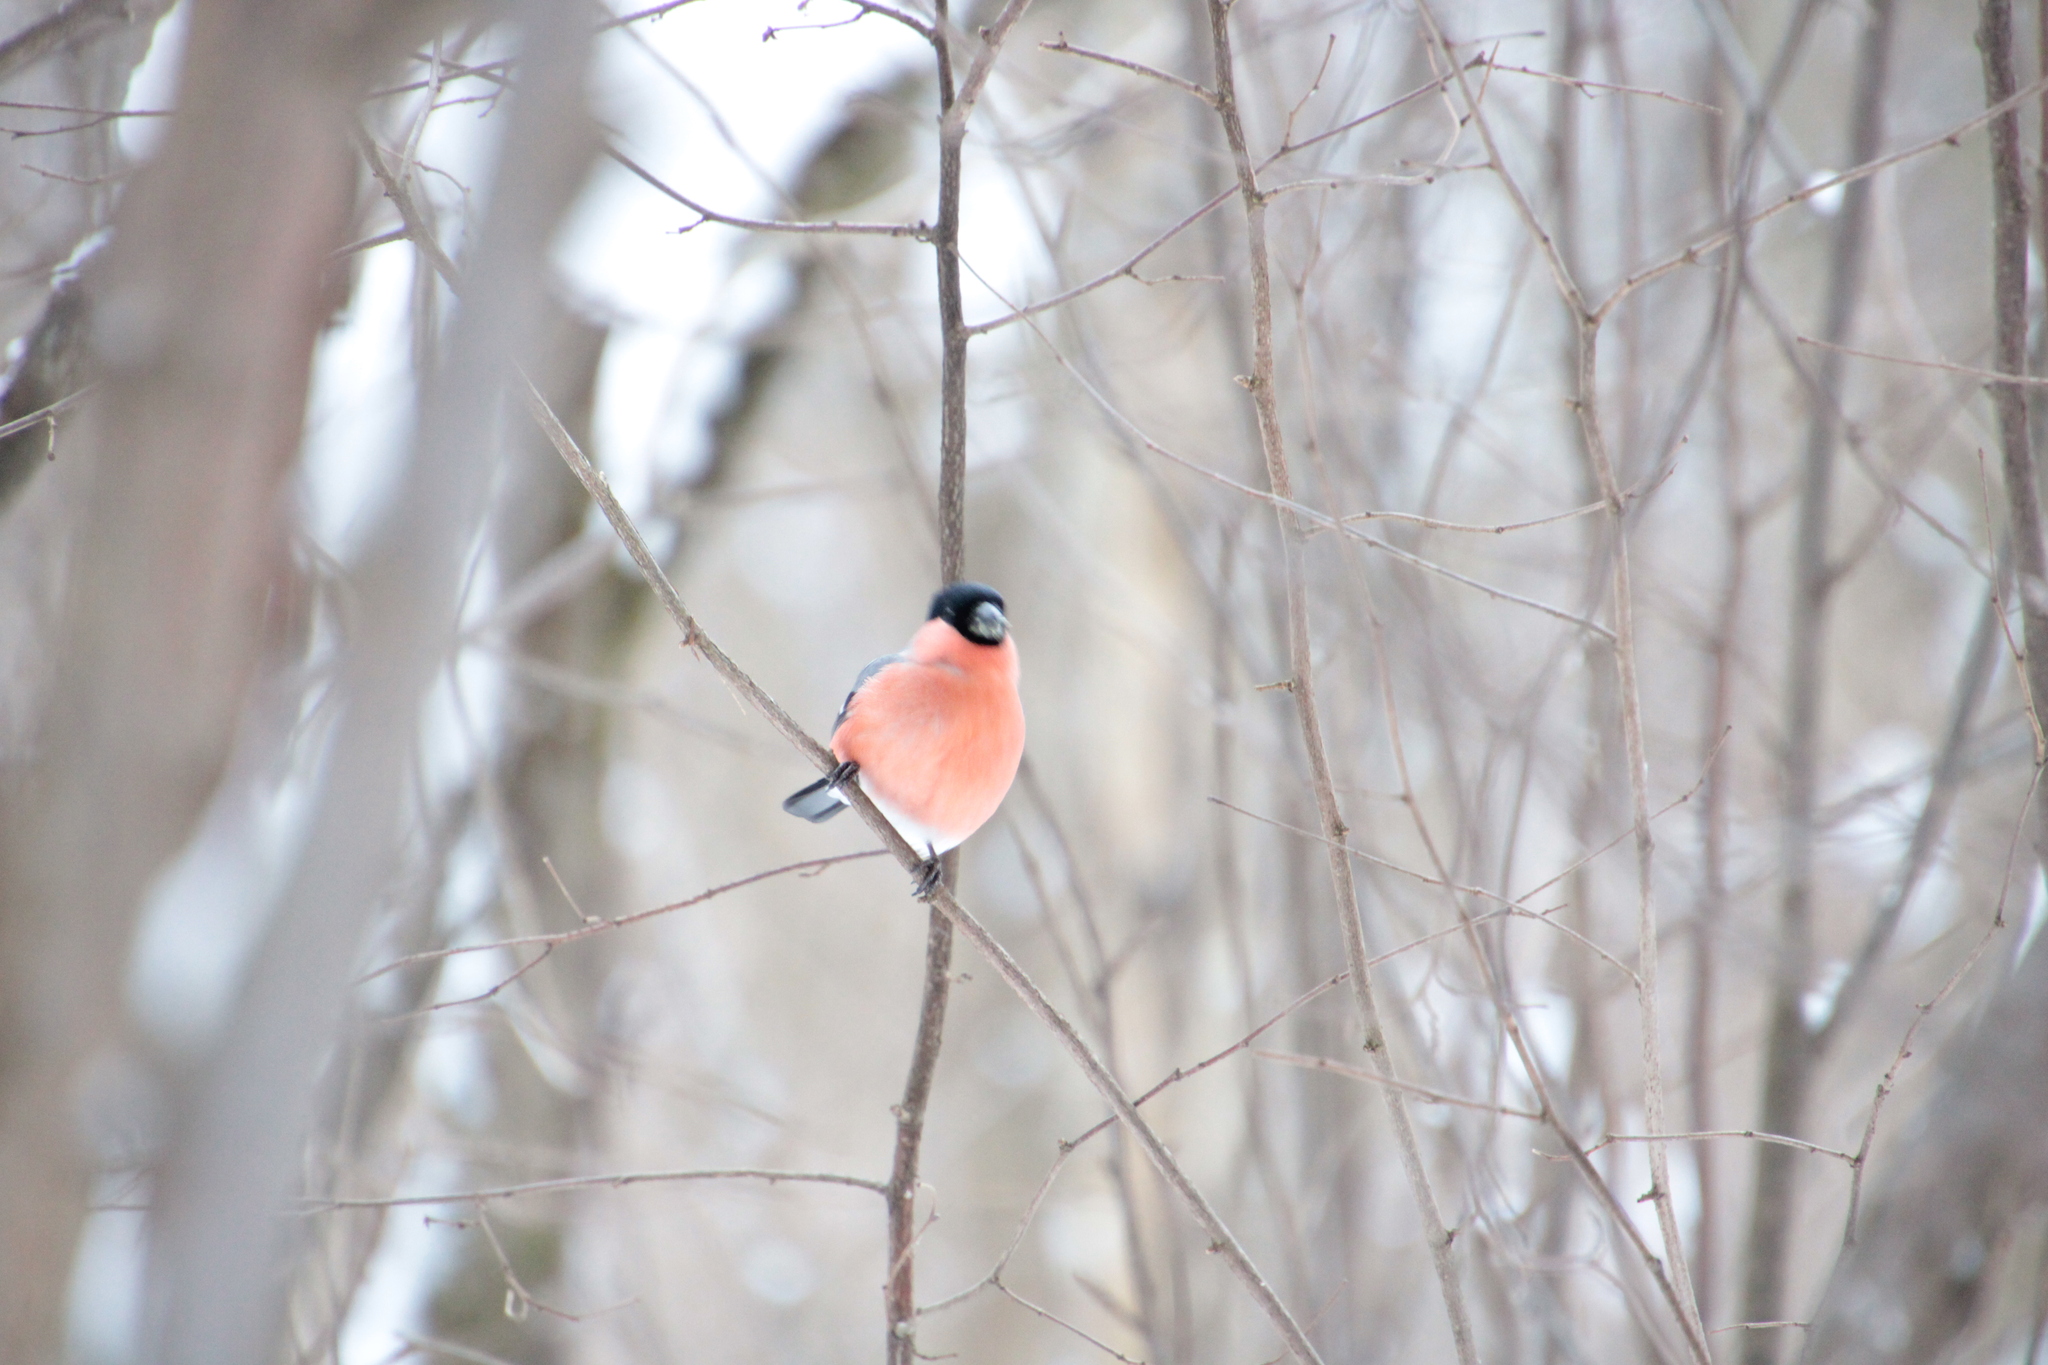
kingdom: Animalia
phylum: Chordata
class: Aves
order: Passeriformes
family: Fringillidae
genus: Pyrrhula
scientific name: Pyrrhula pyrrhula
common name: Eurasian bullfinch
